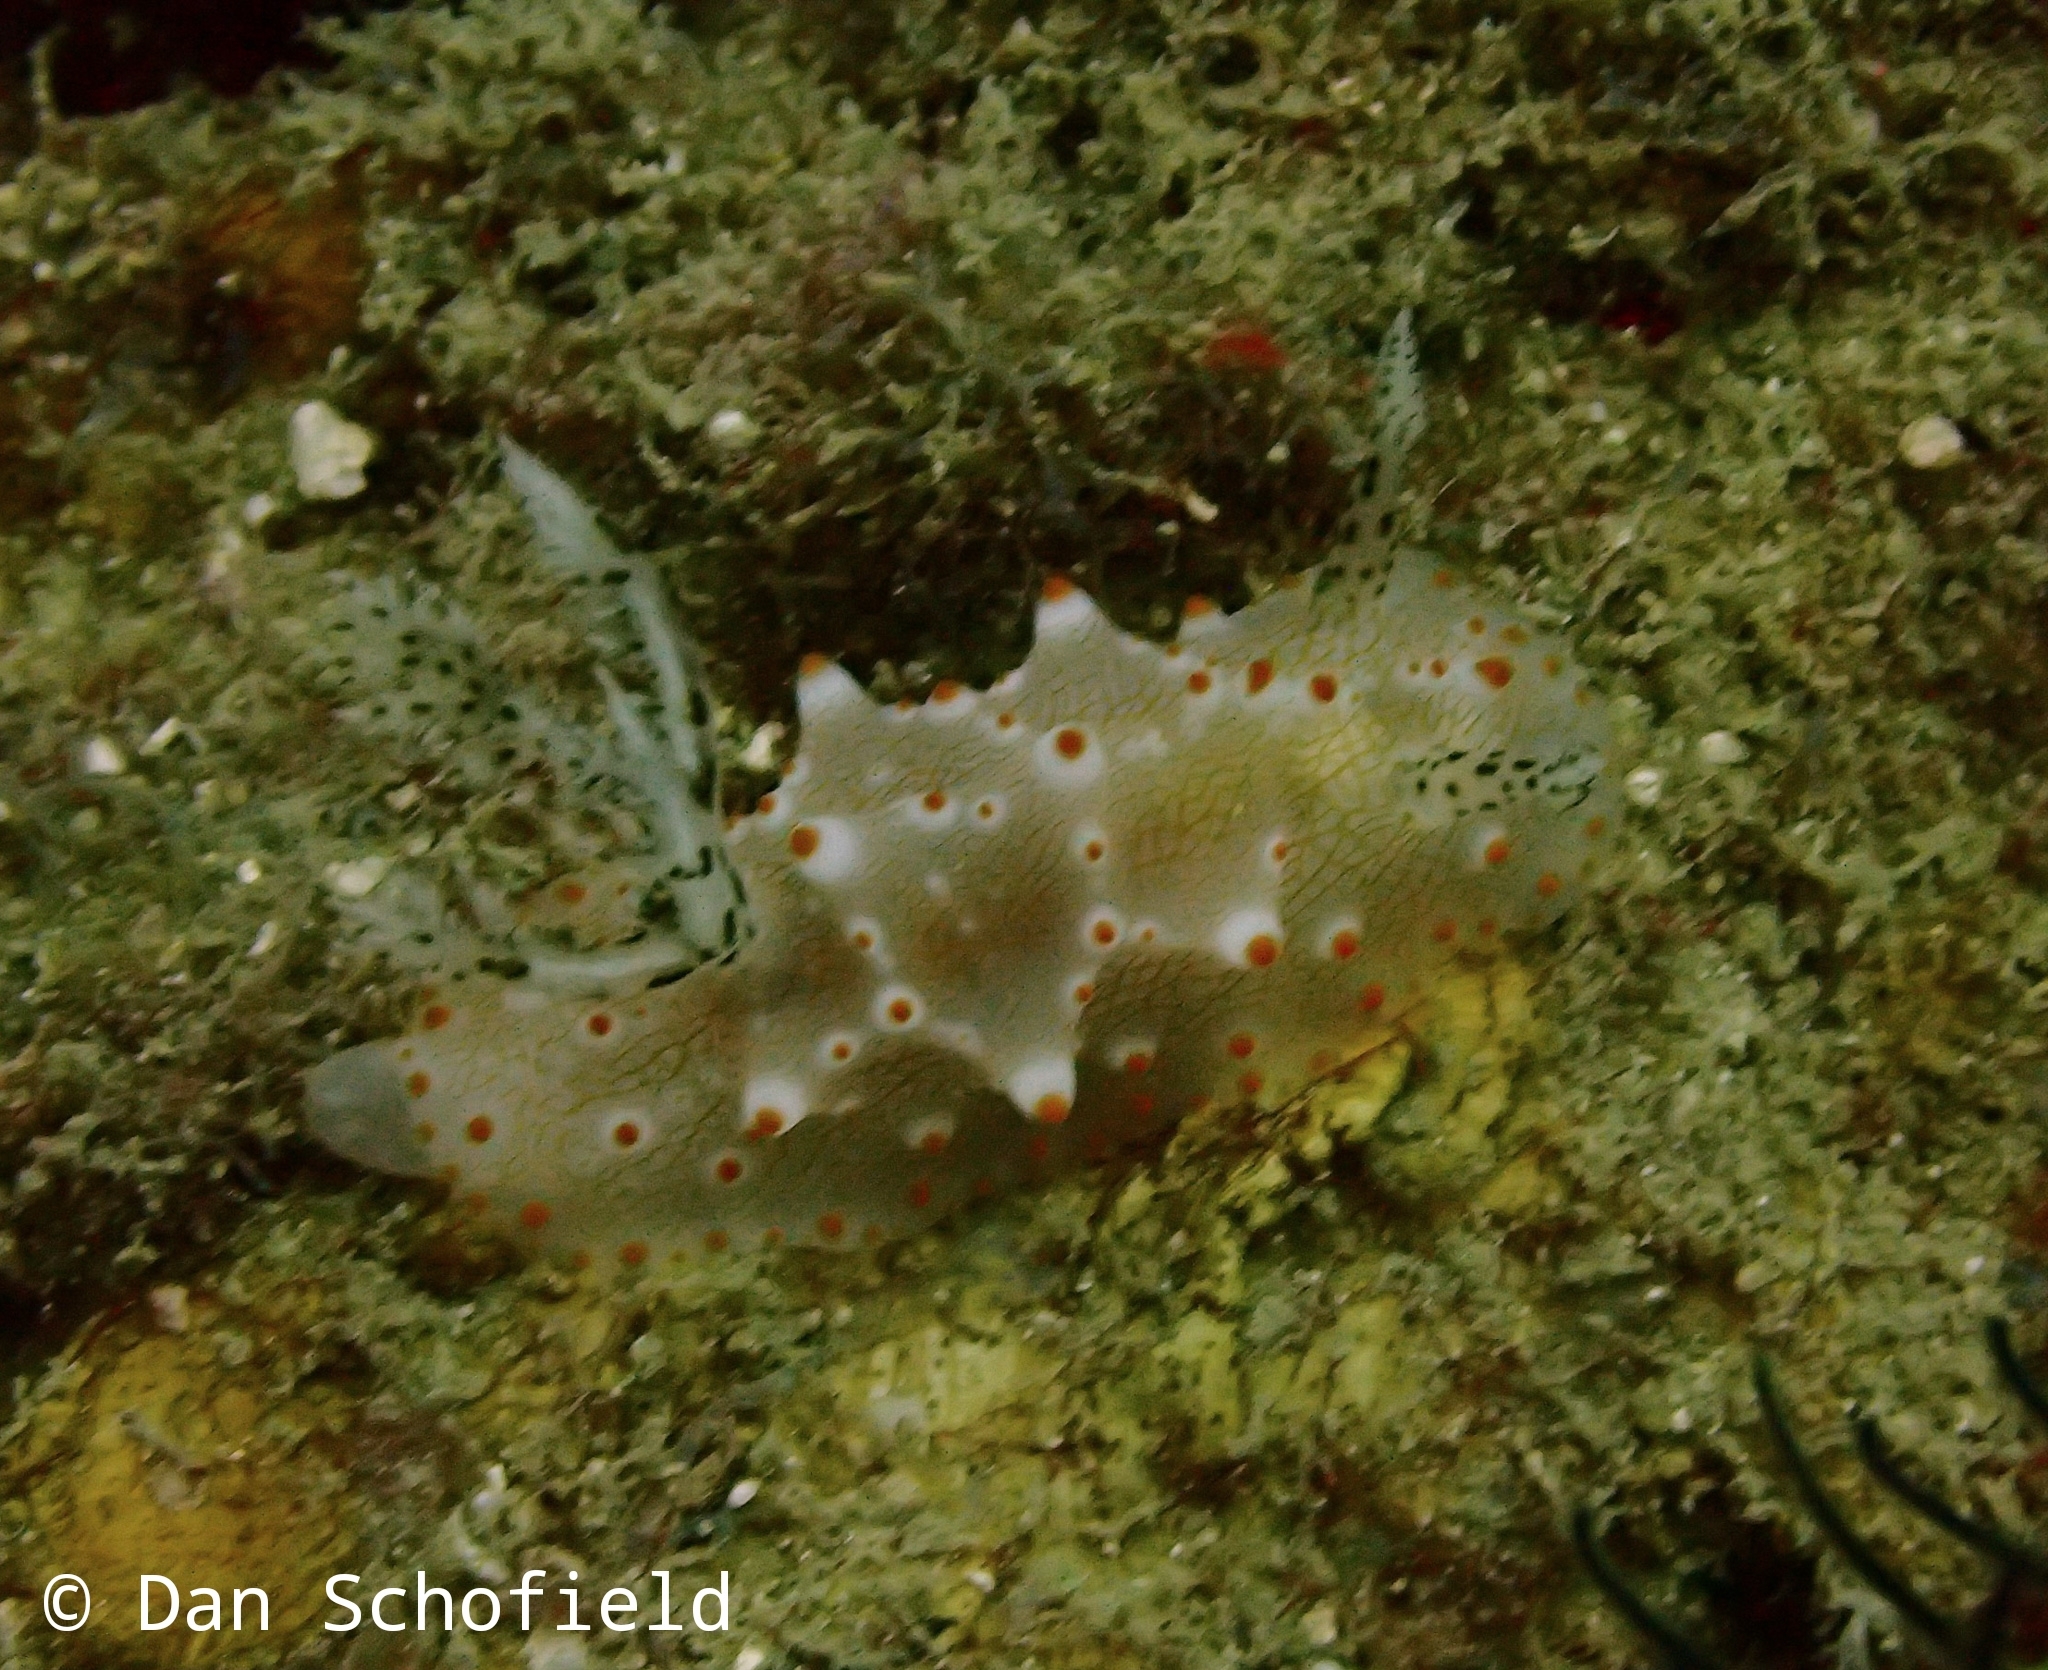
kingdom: Animalia
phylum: Mollusca
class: Gastropoda
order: Nudibranchia
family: Discodorididae
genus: Halgerda
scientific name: Halgerda batangas
